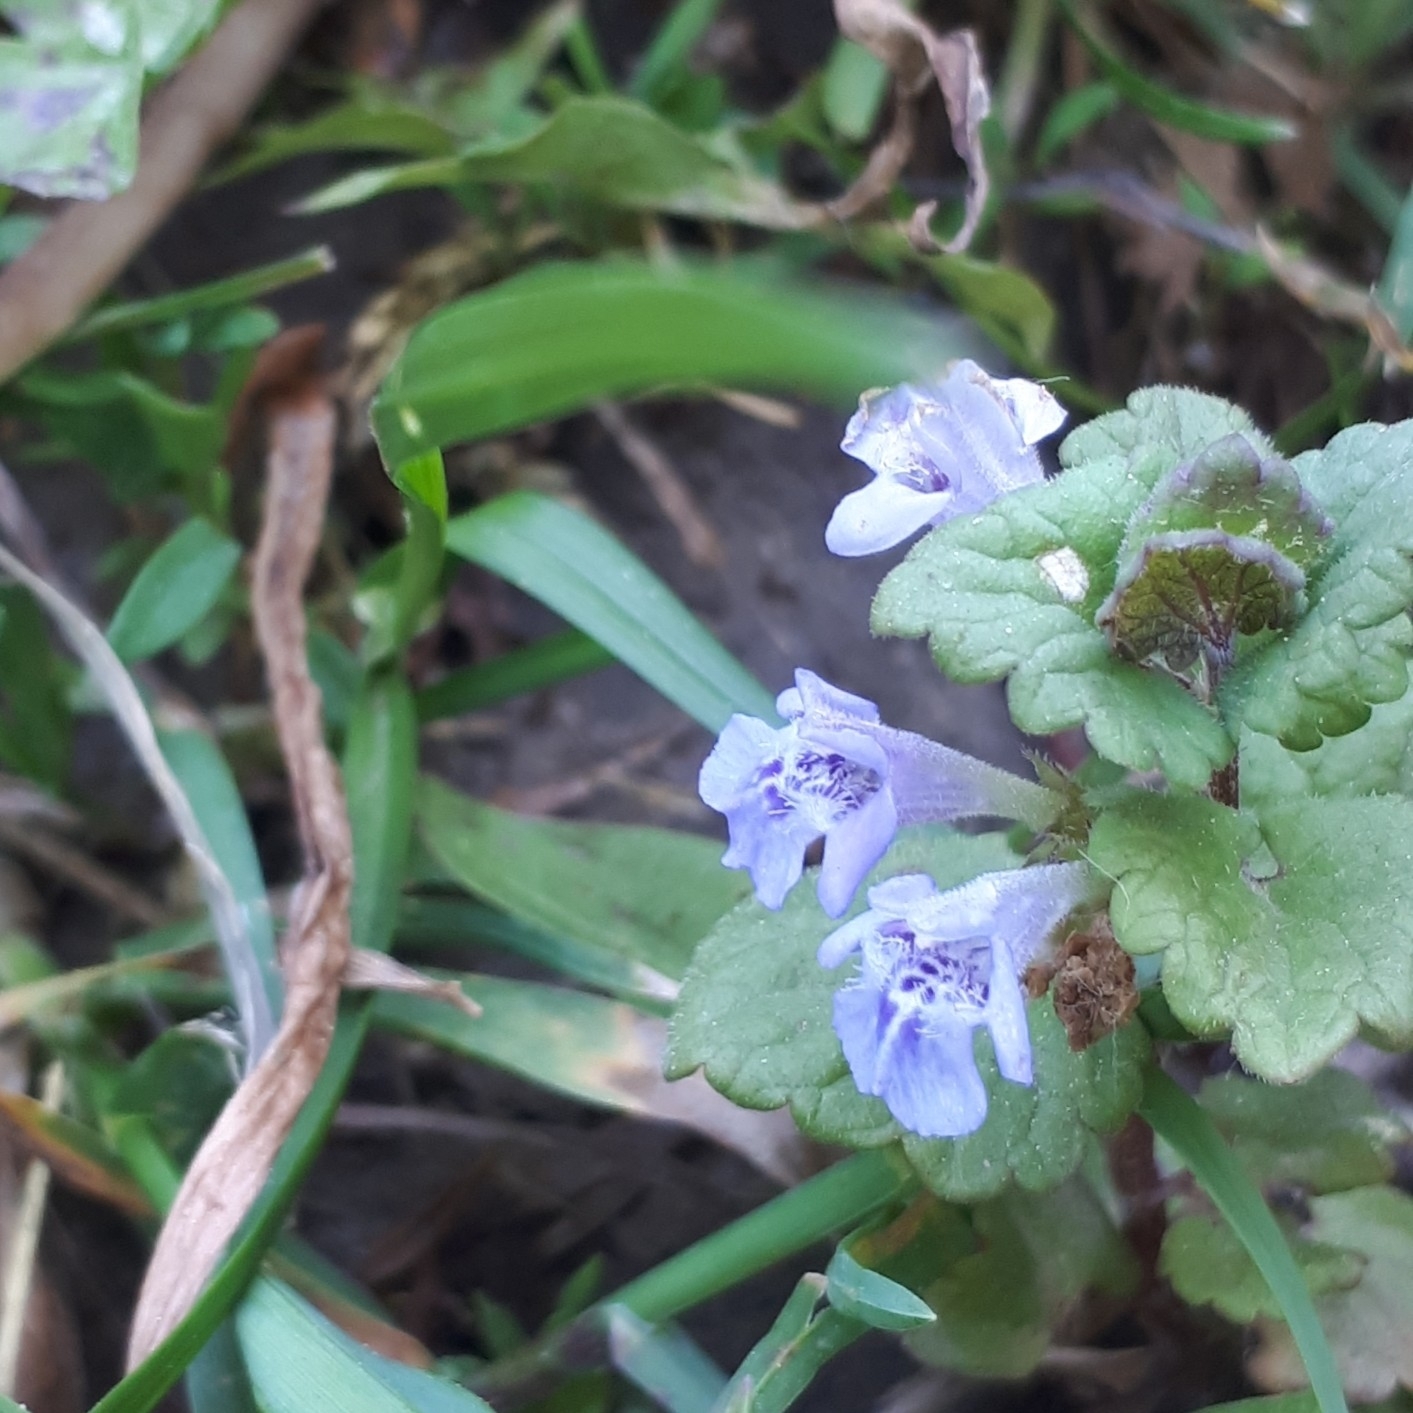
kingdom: Plantae
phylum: Tracheophyta
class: Magnoliopsida
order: Lamiales
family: Lamiaceae
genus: Glechoma
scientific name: Glechoma hederacea
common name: Ground ivy
